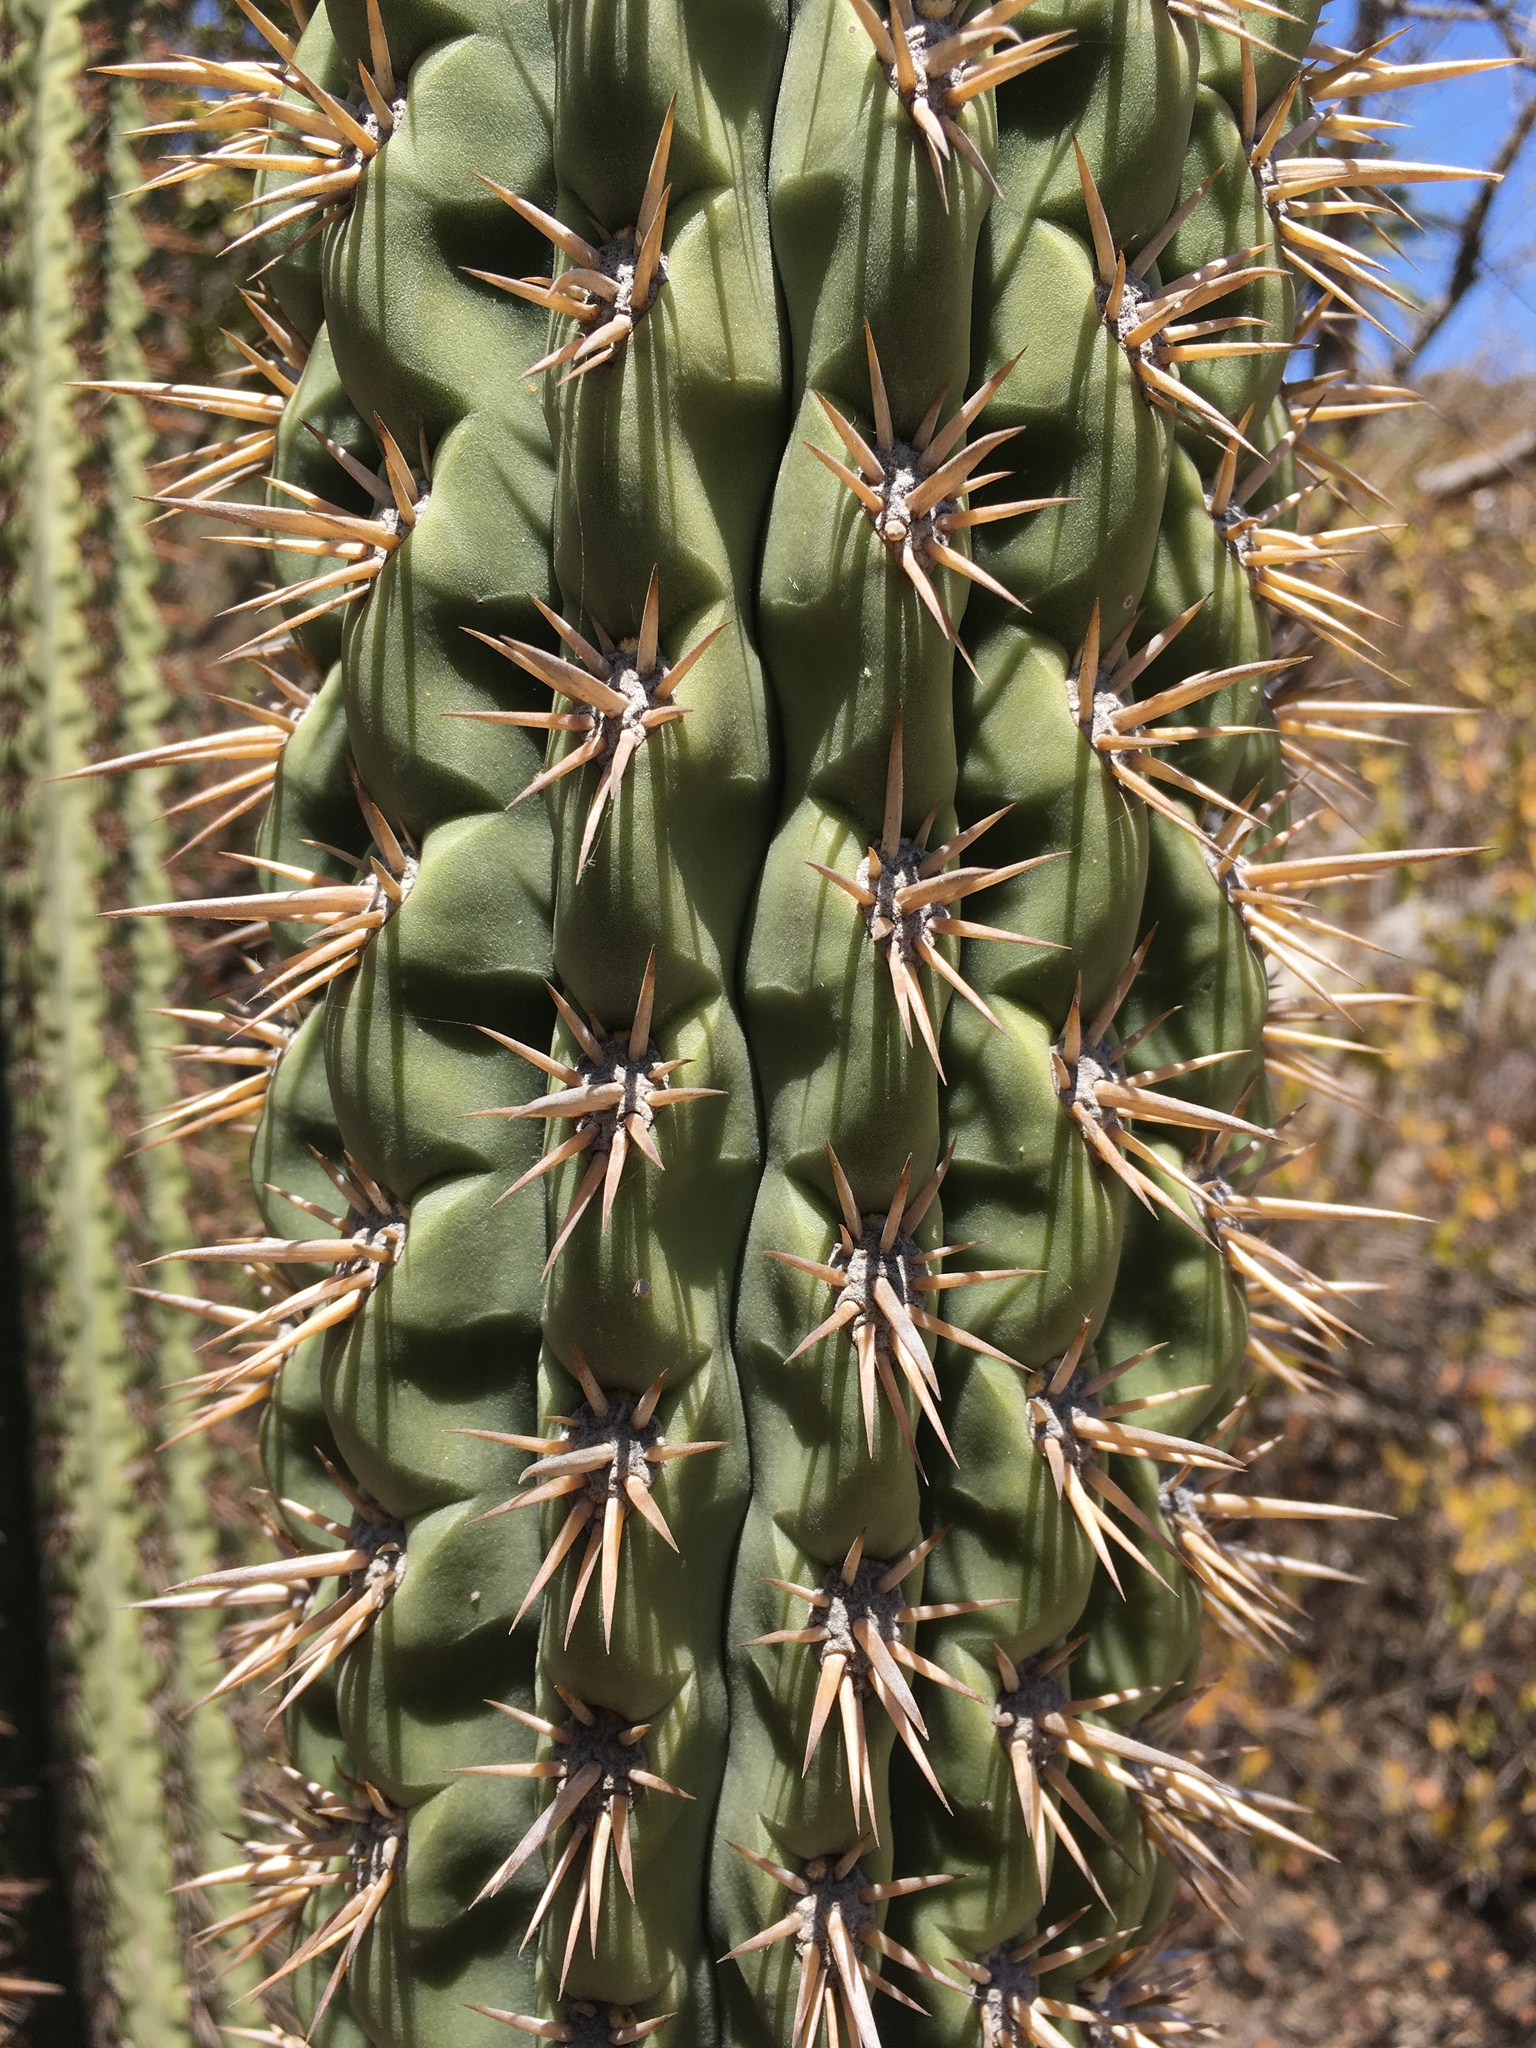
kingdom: Plantae
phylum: Tracheophyta
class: Magnoliopsida
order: Caryophyllales
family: Cactaceae
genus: Leucostele
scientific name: Leucostele chiloensis
